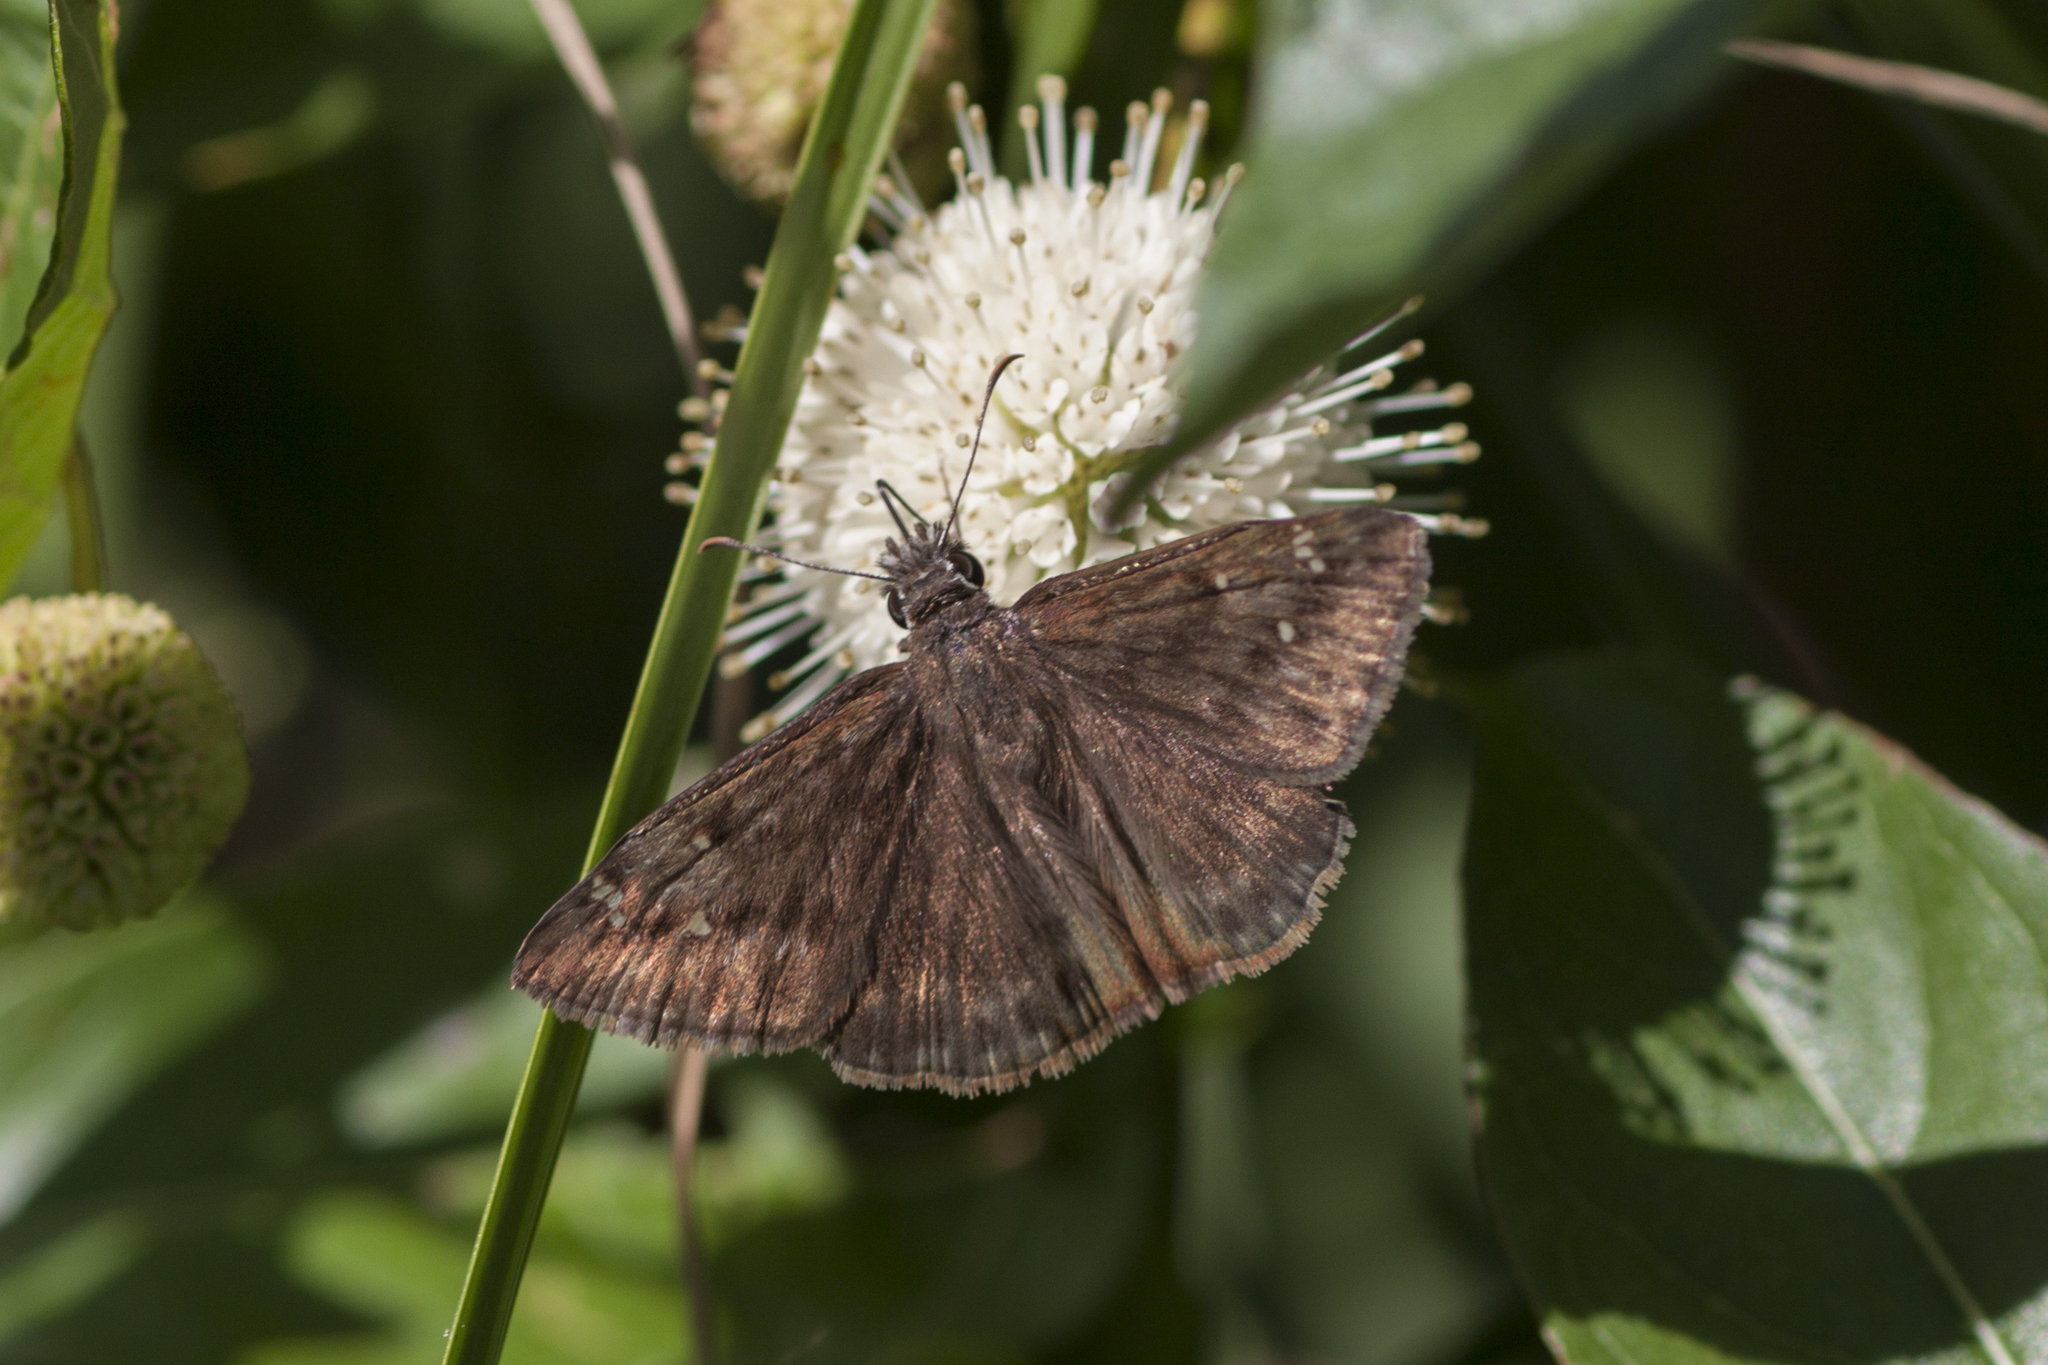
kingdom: Animalia
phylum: Arthropoda
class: Insecta
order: Lepidoptera
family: Hesperiidae
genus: Erynnis
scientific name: Erynnis horatius
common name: Horace's duskywing
